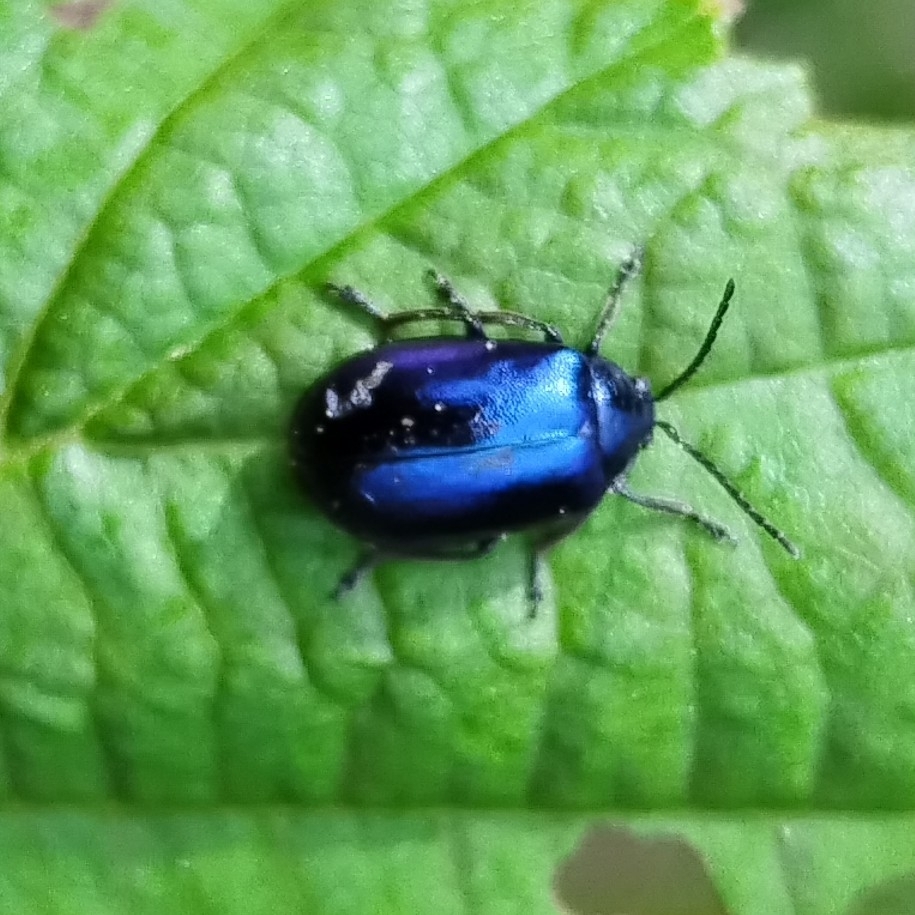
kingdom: Animalia
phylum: Arthropoda
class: Insecta
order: Coleoptera
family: Chrysomelidae
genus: Agelastica
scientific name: Agelastica alni
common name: Alder leaf beetle
